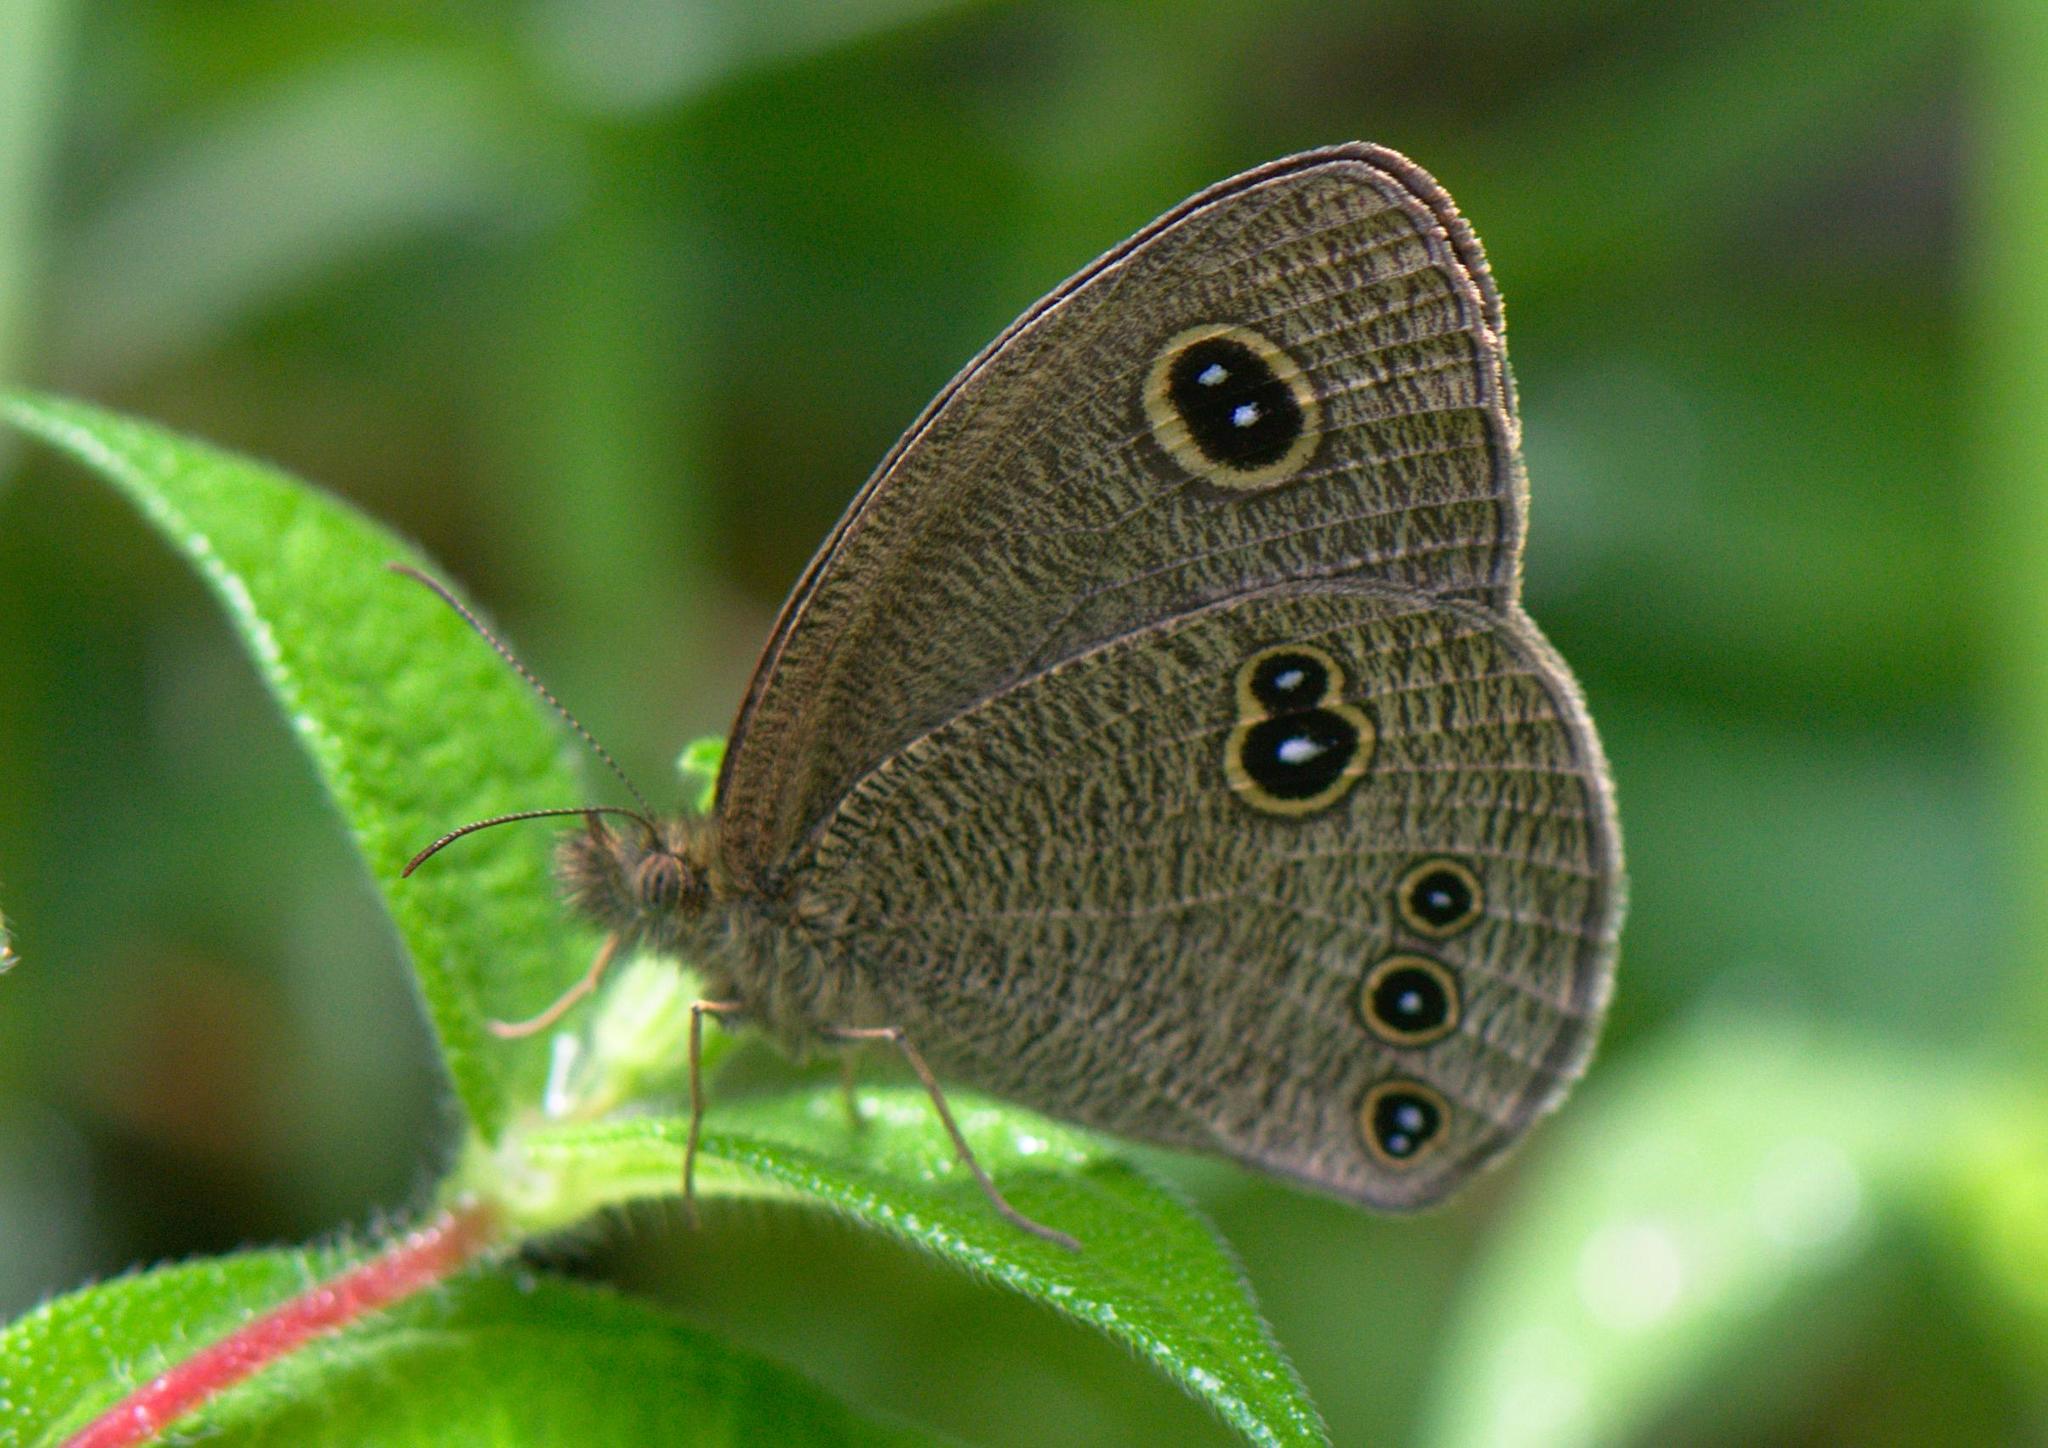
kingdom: Animalia
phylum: Arthropoda
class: Insecta
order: Lepidoptera
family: Nymphalidae
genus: Ypthima
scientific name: Ypthima nikaea
